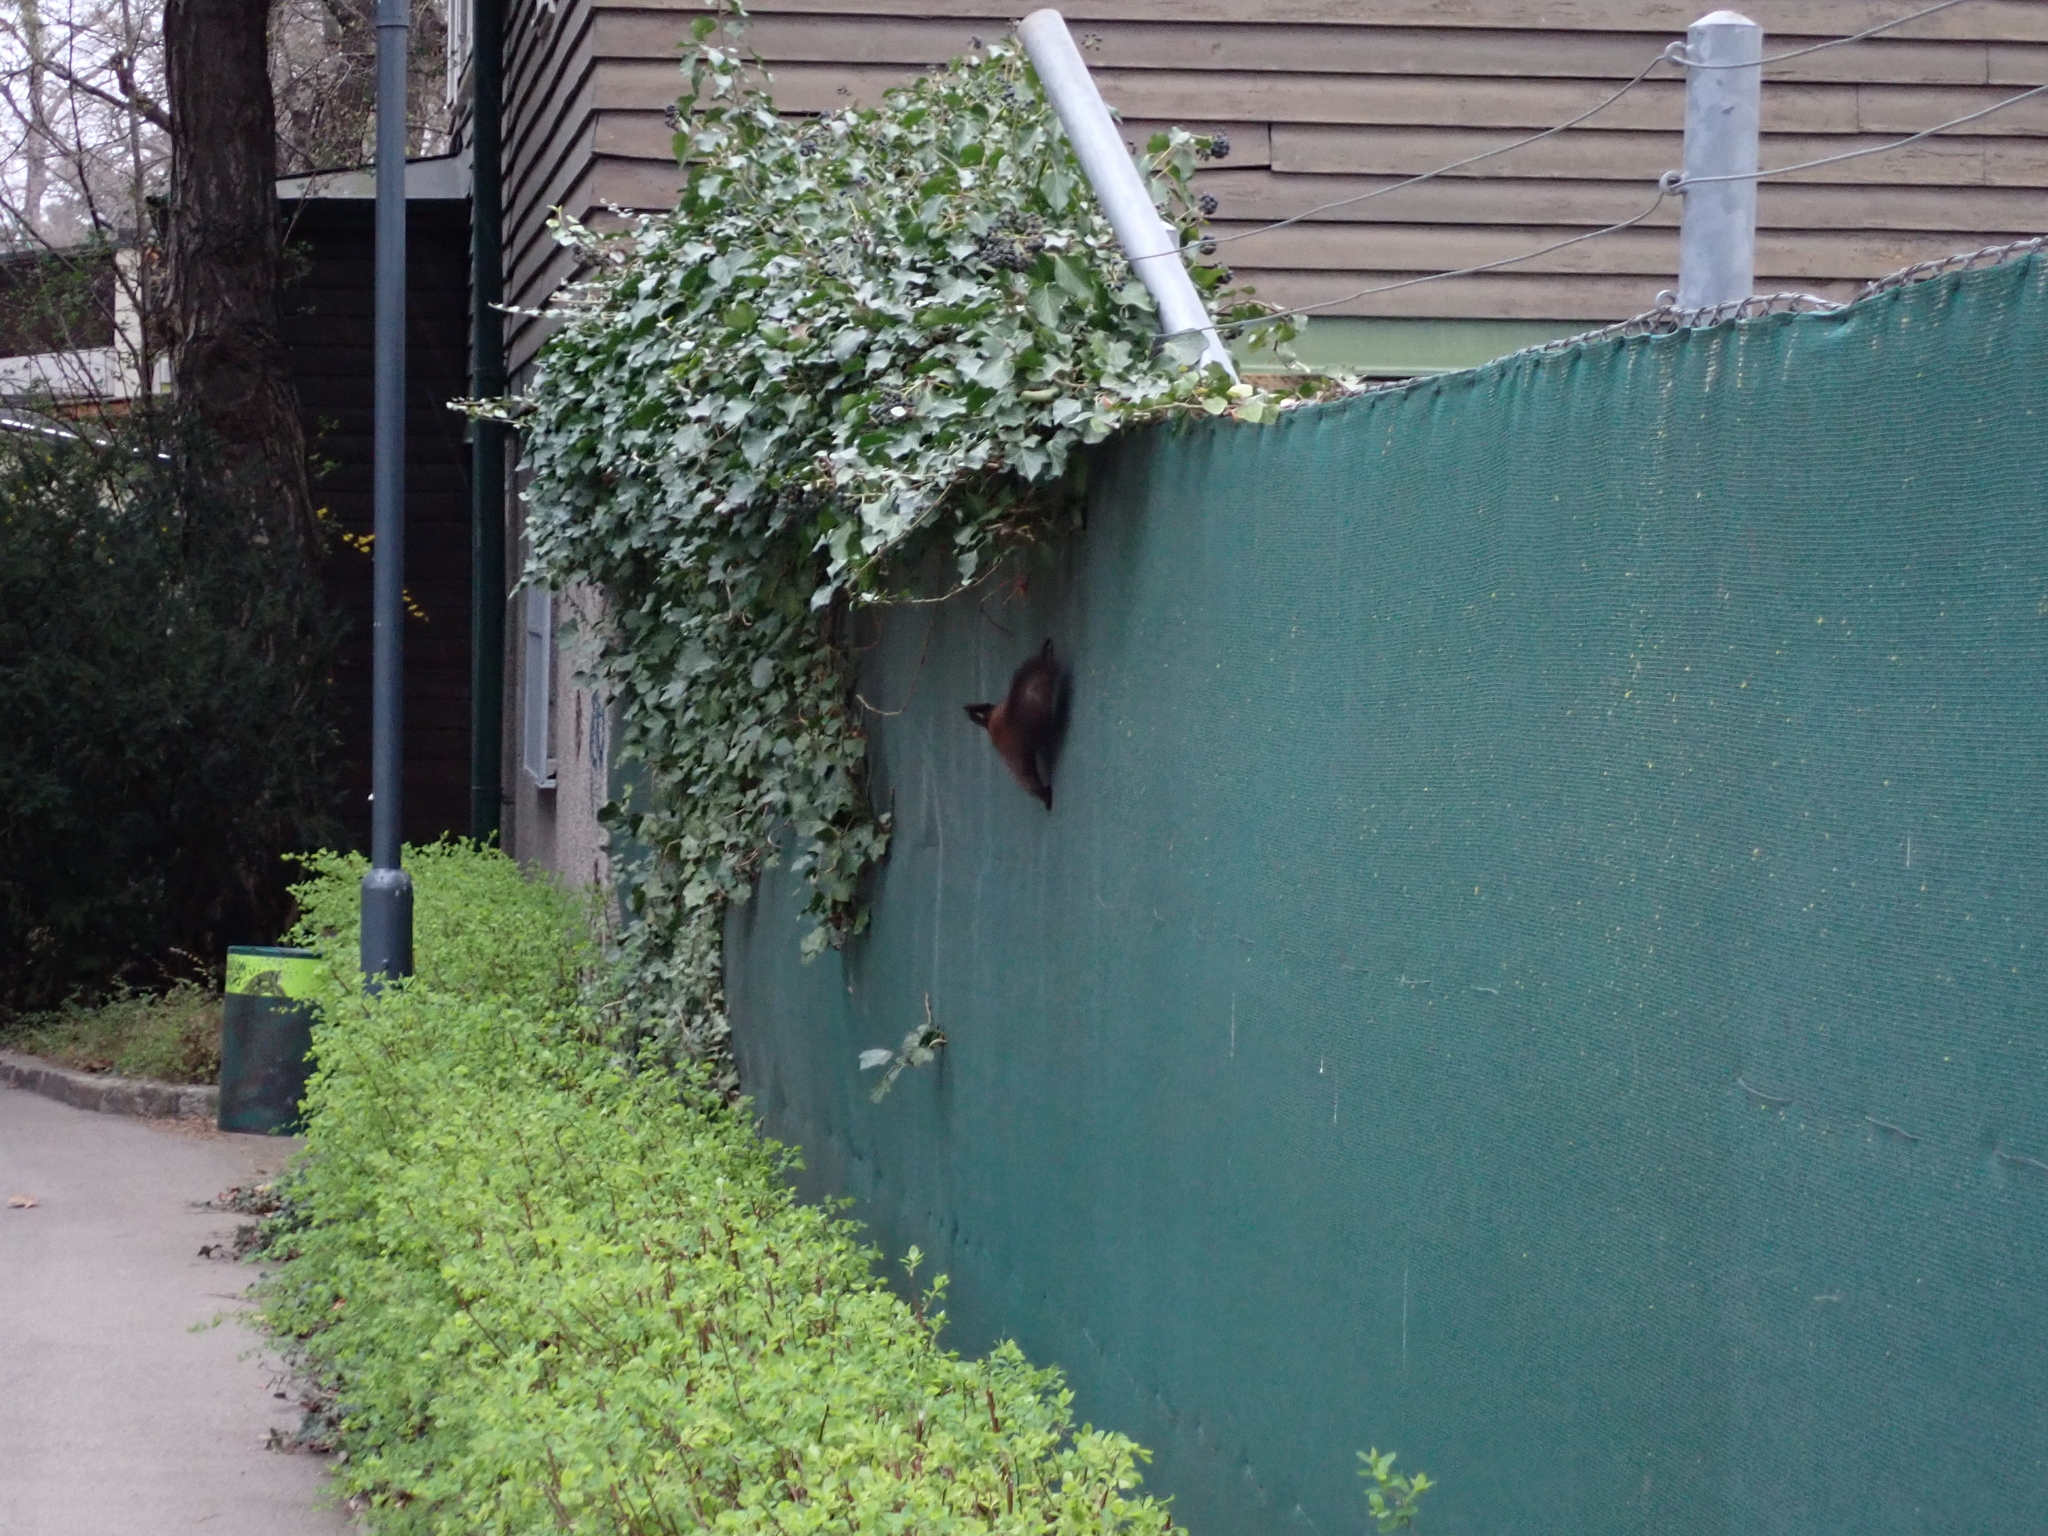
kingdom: Animalia
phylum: Chordata
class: Mammalia
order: Rodentia
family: Sciuridae
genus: Sciurus
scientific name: Sciurus vulgaris
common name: Eurasian red squirrel
